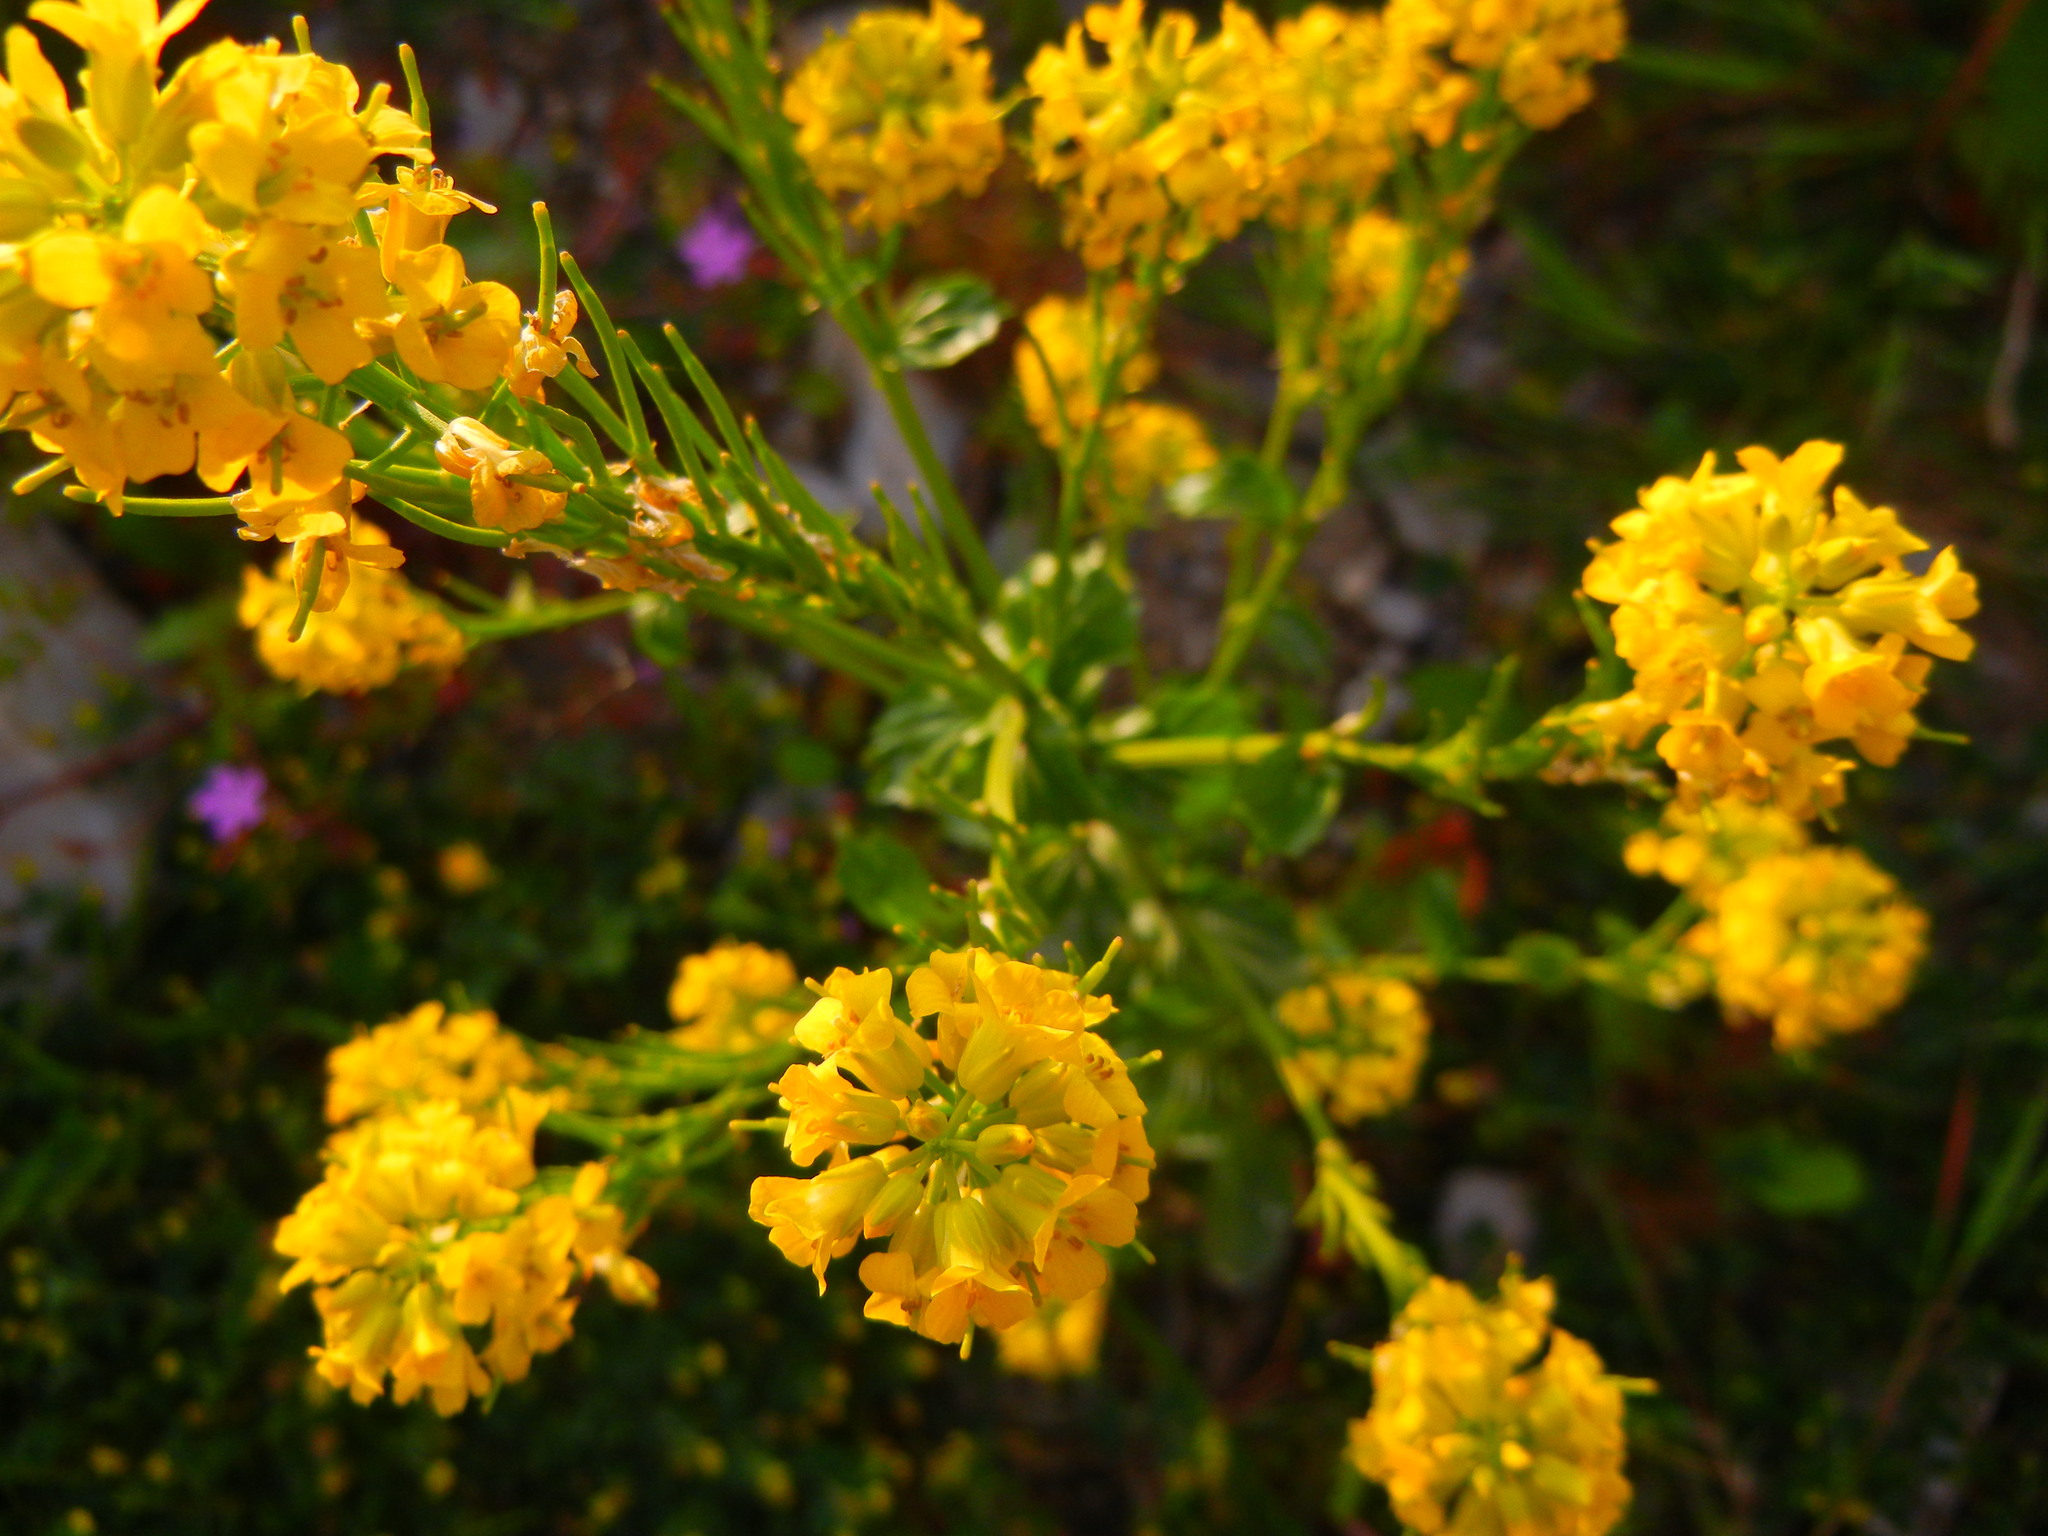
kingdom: Plantae
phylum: Tracheophyta
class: Magnoliopsida
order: Brassicales
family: Brassicaceae
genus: Barbarea
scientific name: Barbarea vulgaris
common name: Cressy-greens
